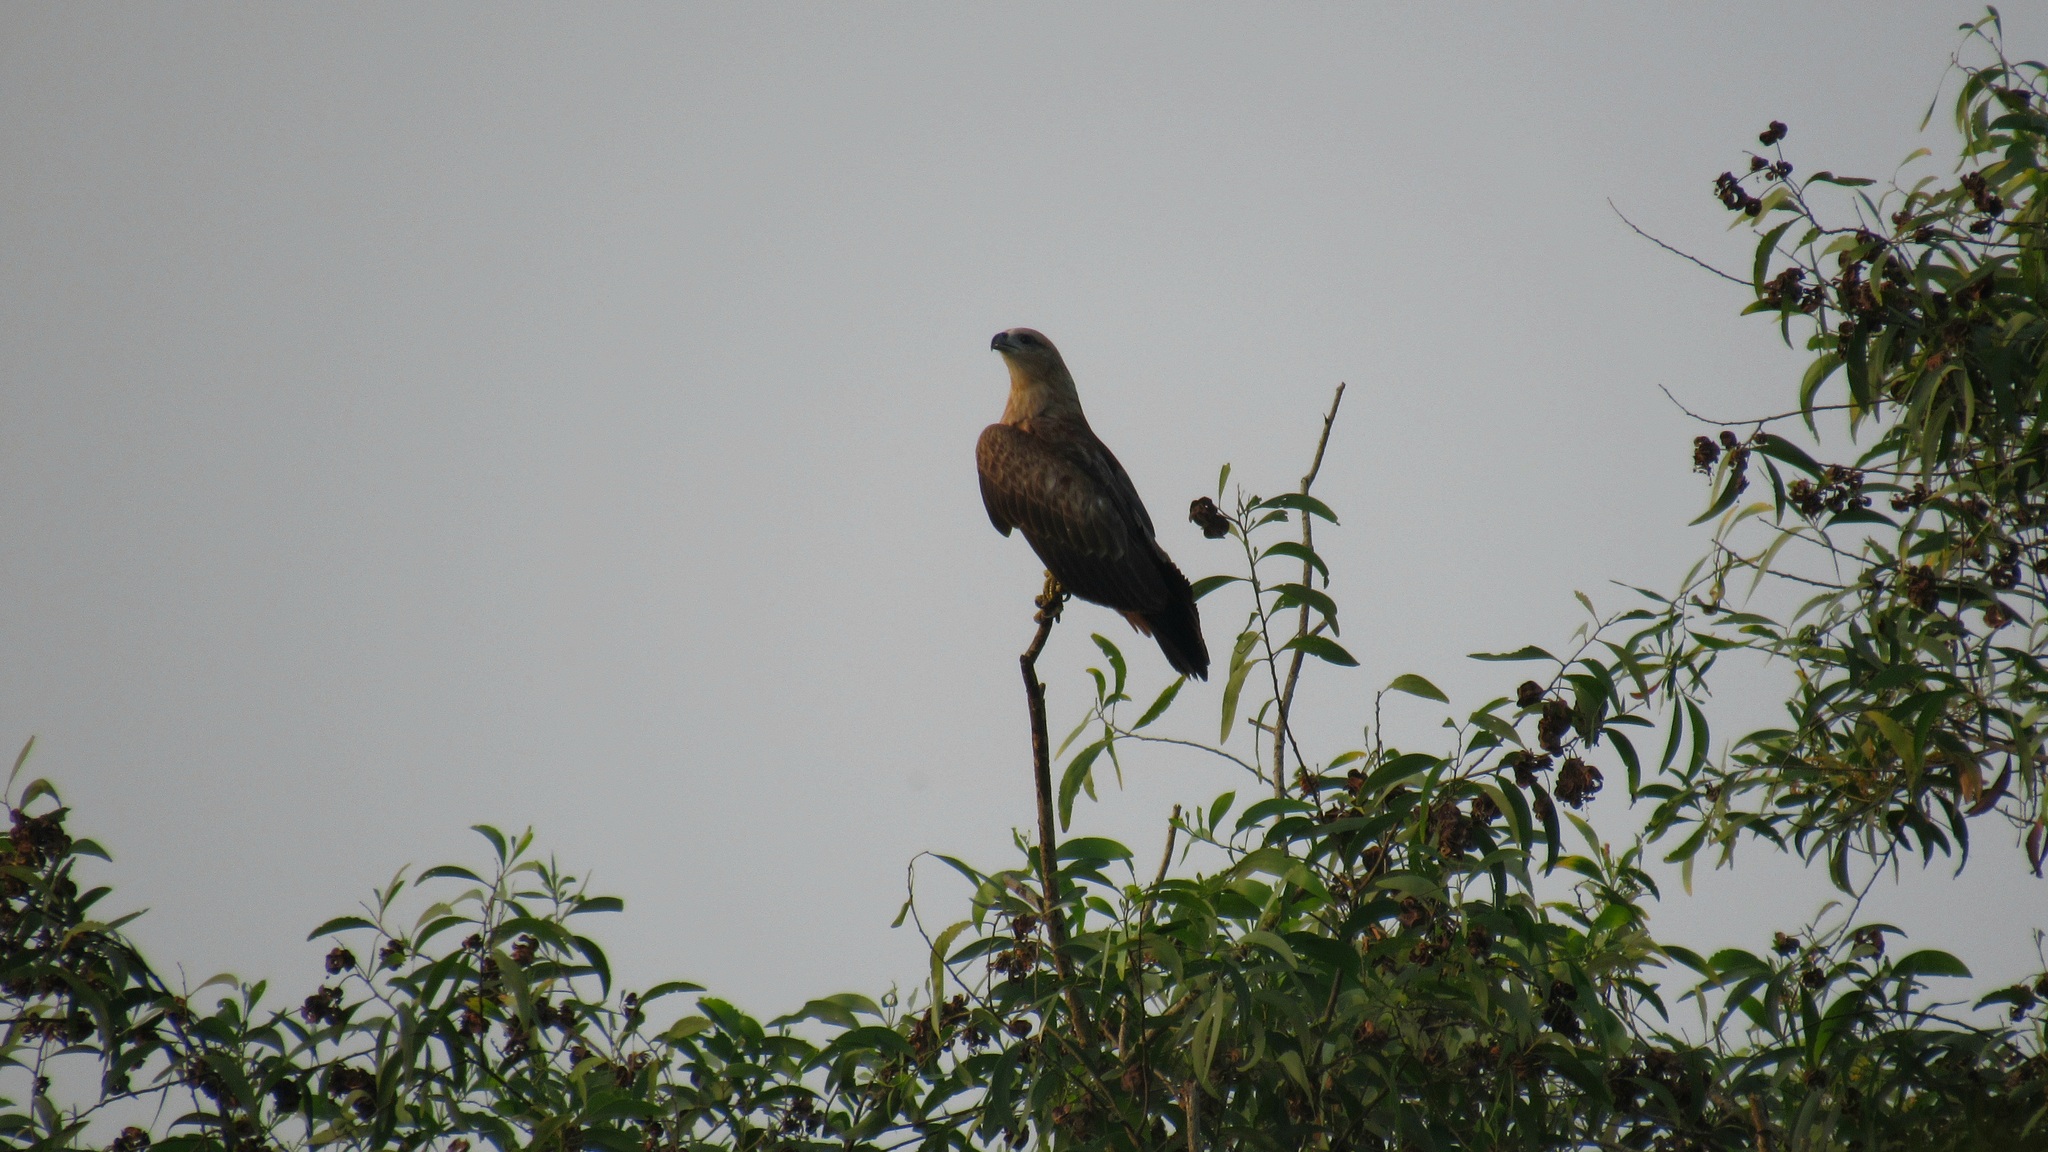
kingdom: Animalia
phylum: Chordata
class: Aves
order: Accipitriformes
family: Accipitridae
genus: Haliastur
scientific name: Haliastur indus
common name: Brahminy kite
